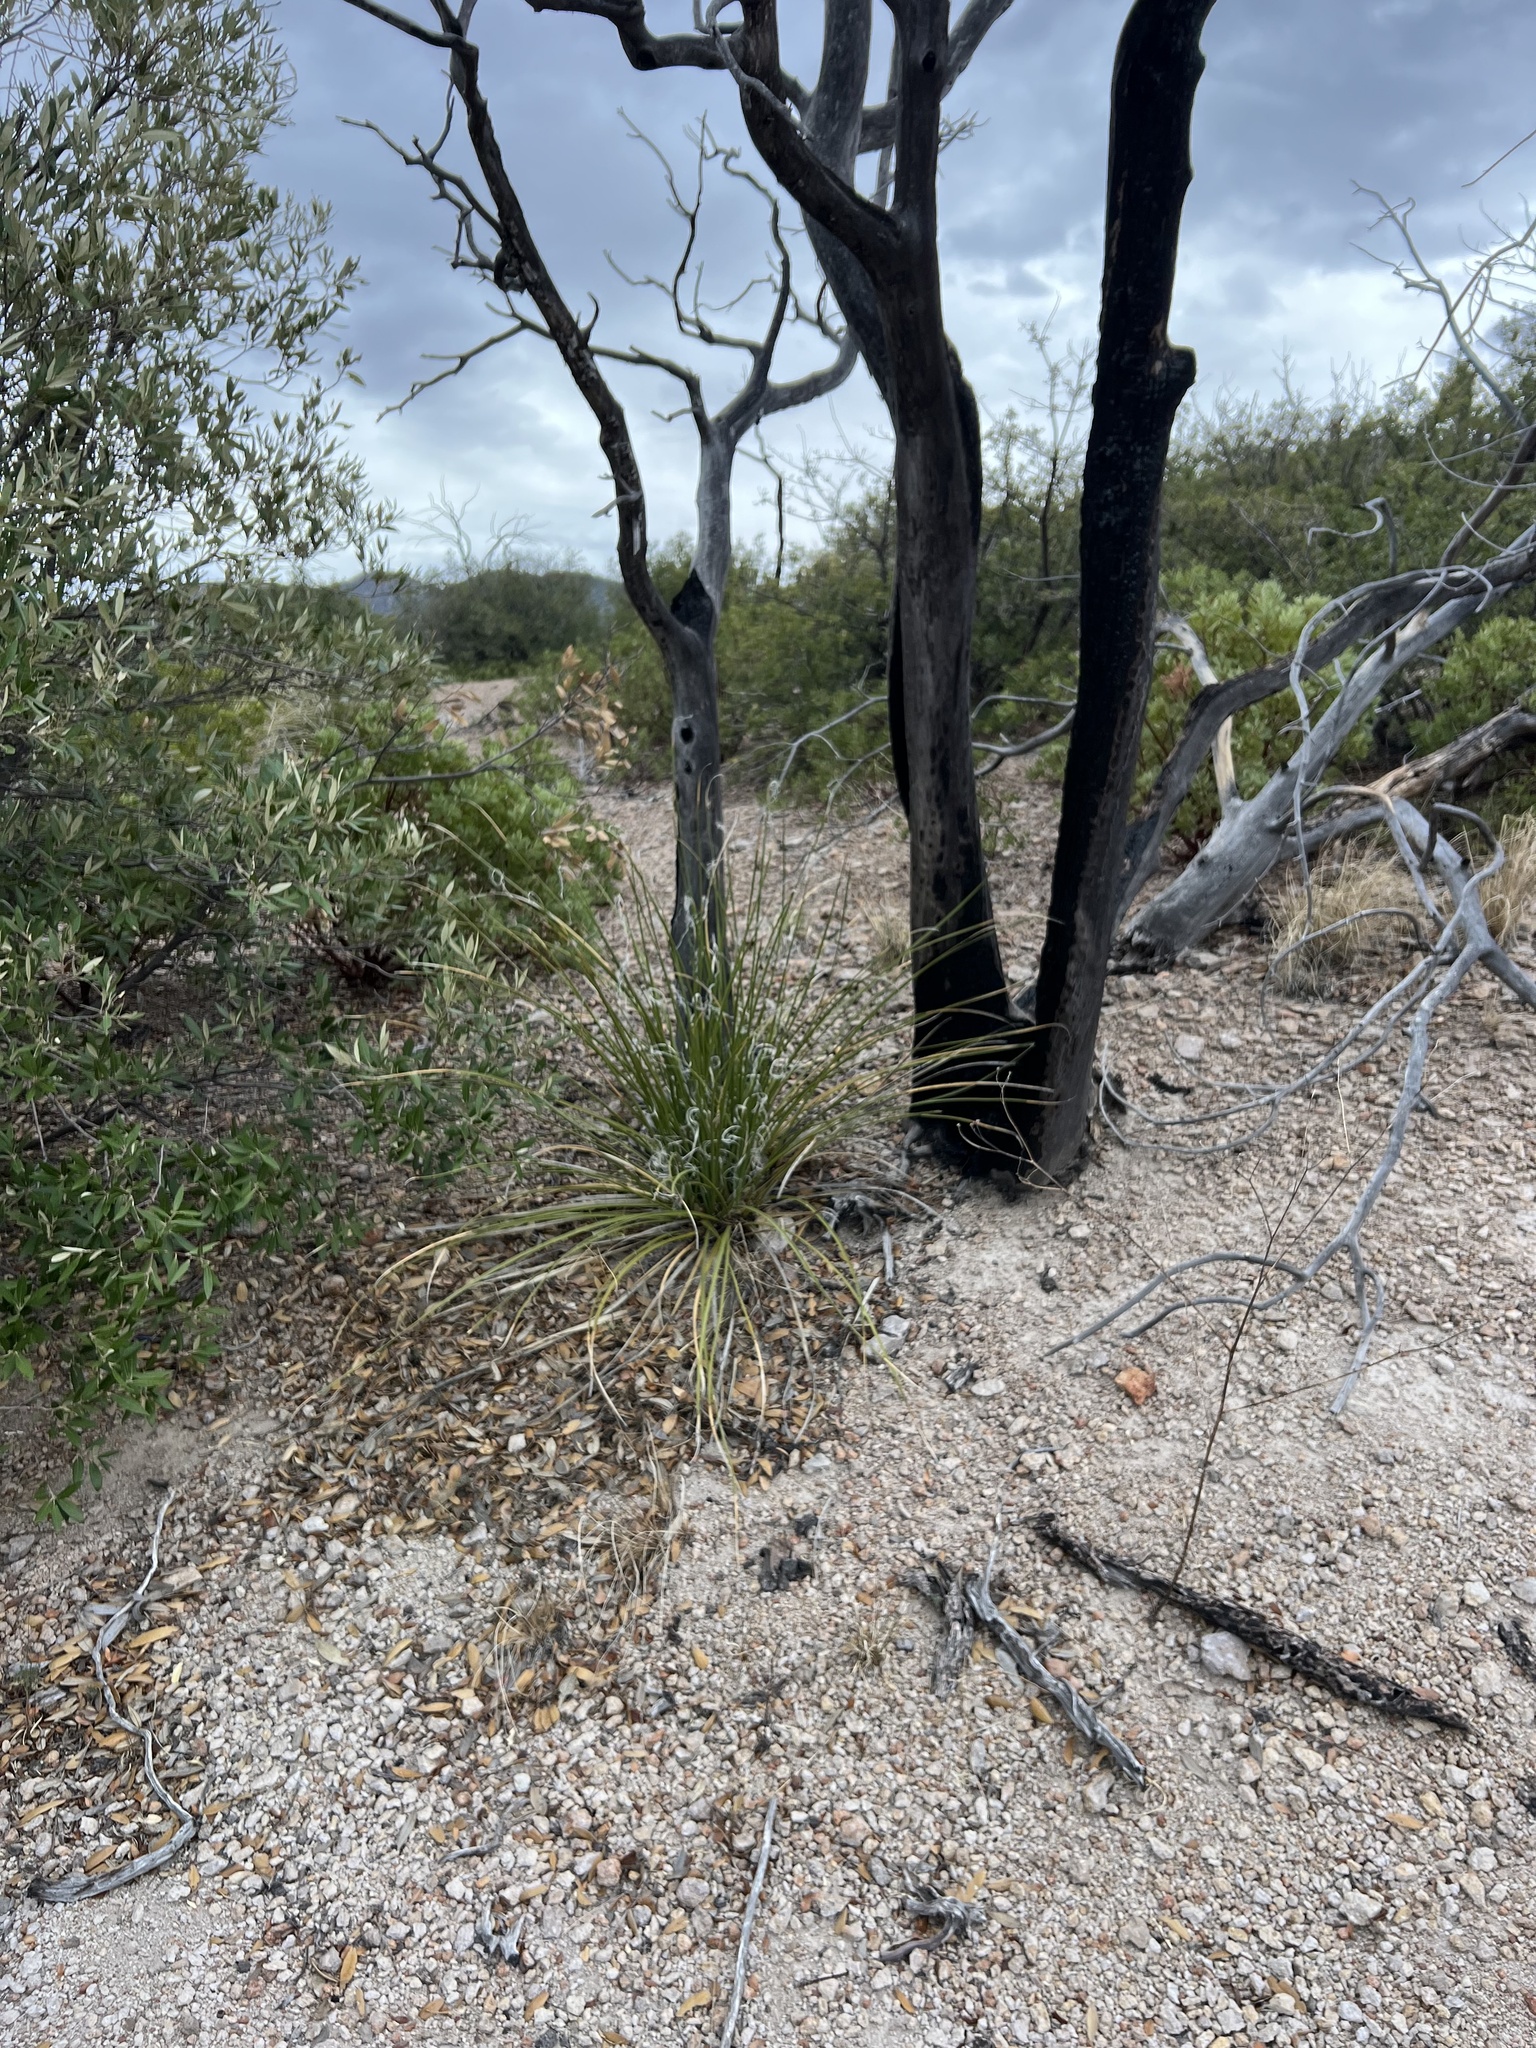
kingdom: Plantae
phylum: Tracheophyta
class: Liliopsida
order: Asparagales
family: Asparagaceae
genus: Nolina
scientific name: Nolina microcarpa
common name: Bear-grass
